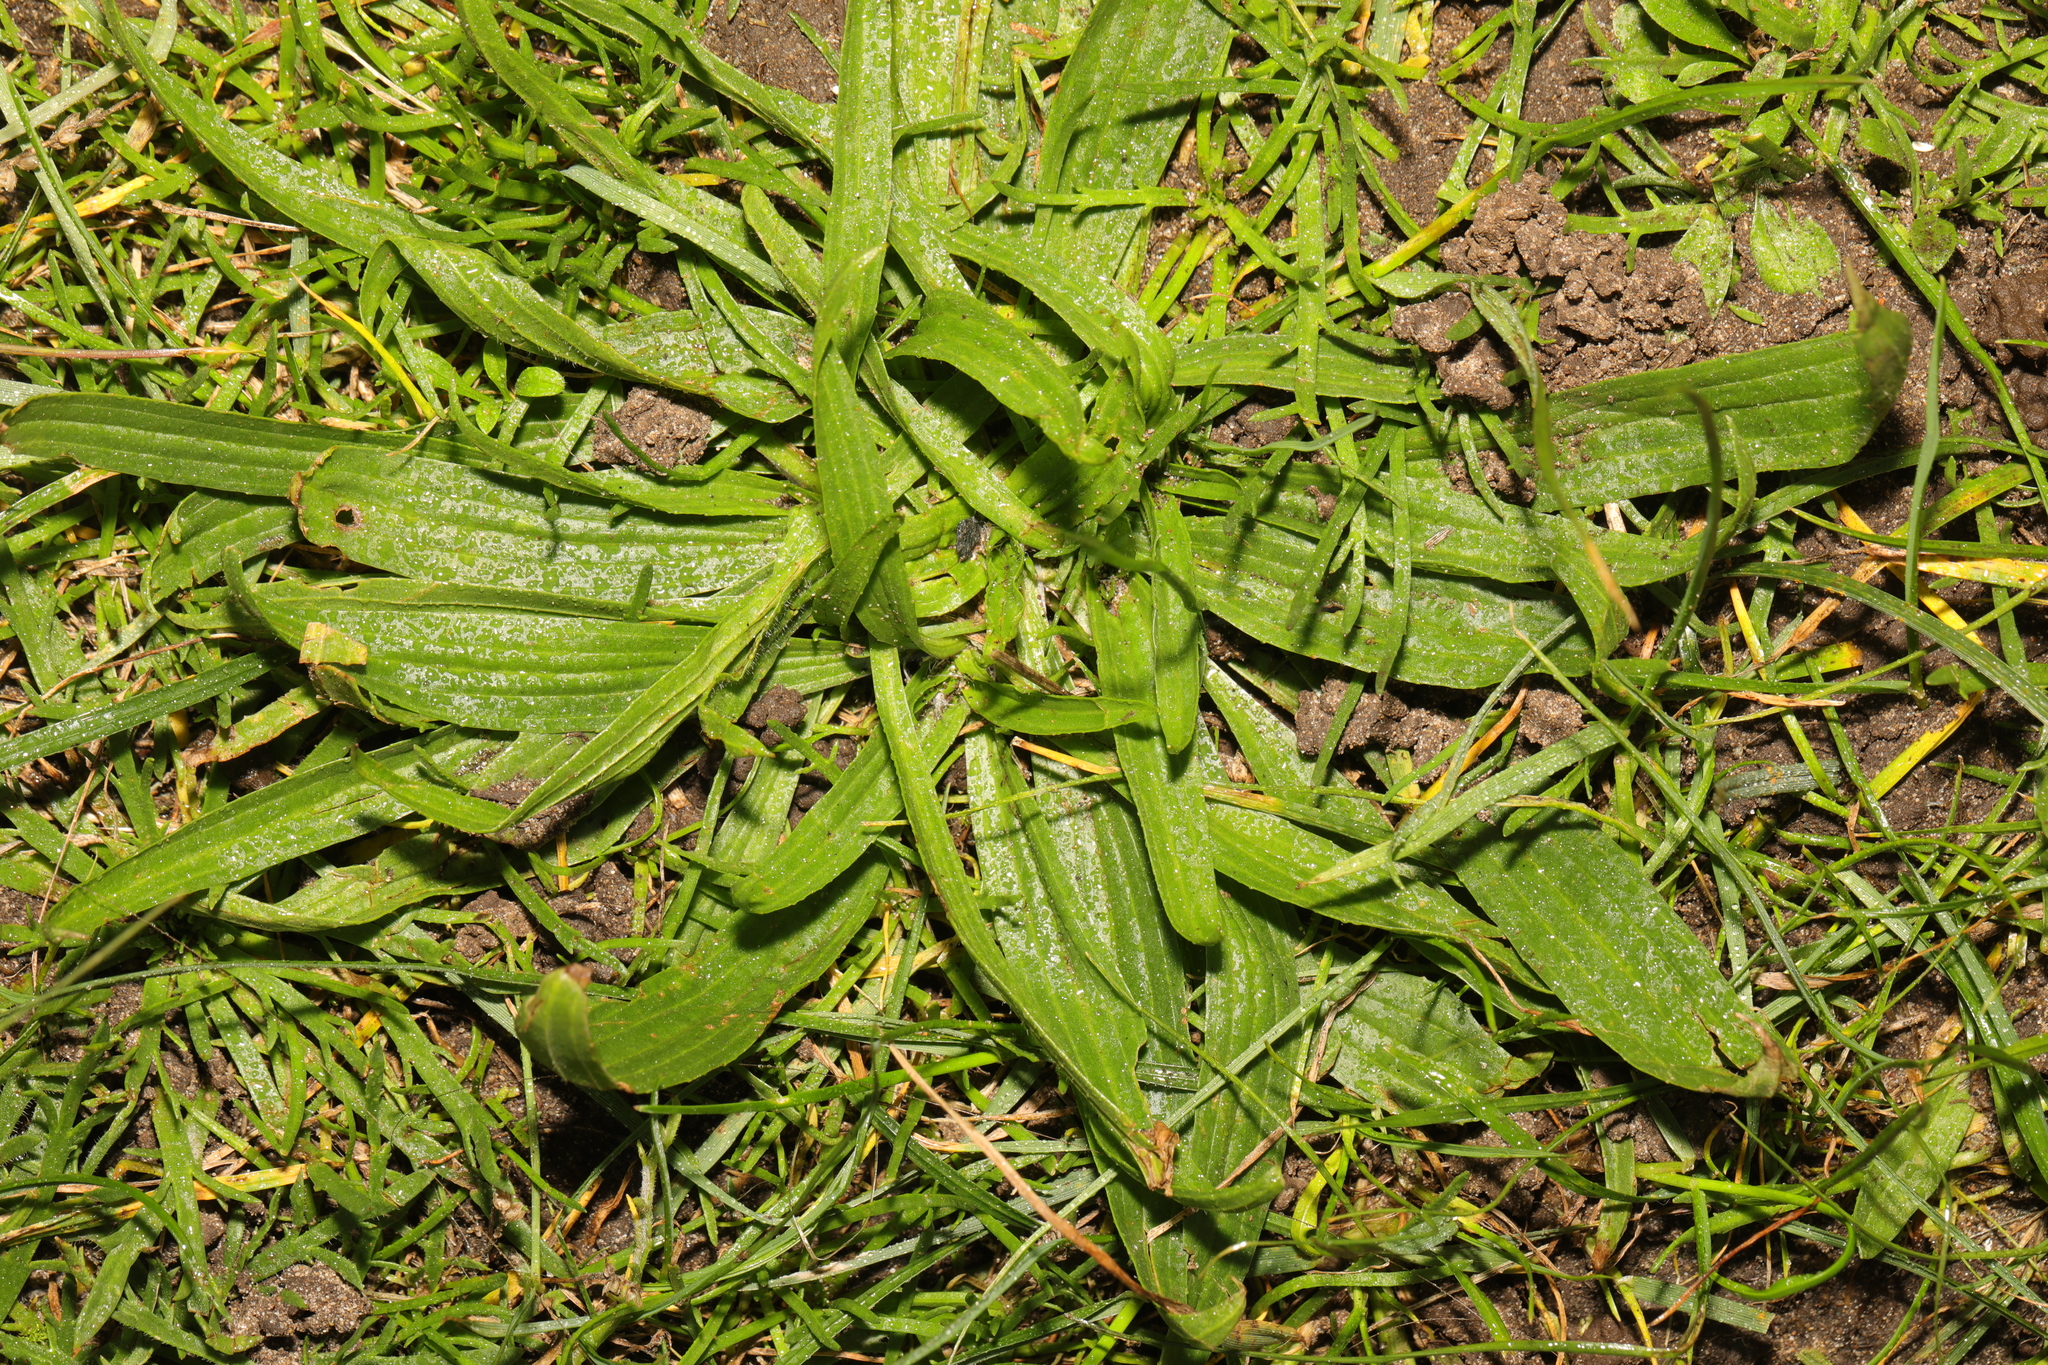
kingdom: Plantae
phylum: Tracheophyta
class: Magnoliopsida
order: Lamiales
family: Plantaginaceae
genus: Plantago
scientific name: Plantago lanceolata
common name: Ribwort plantain
